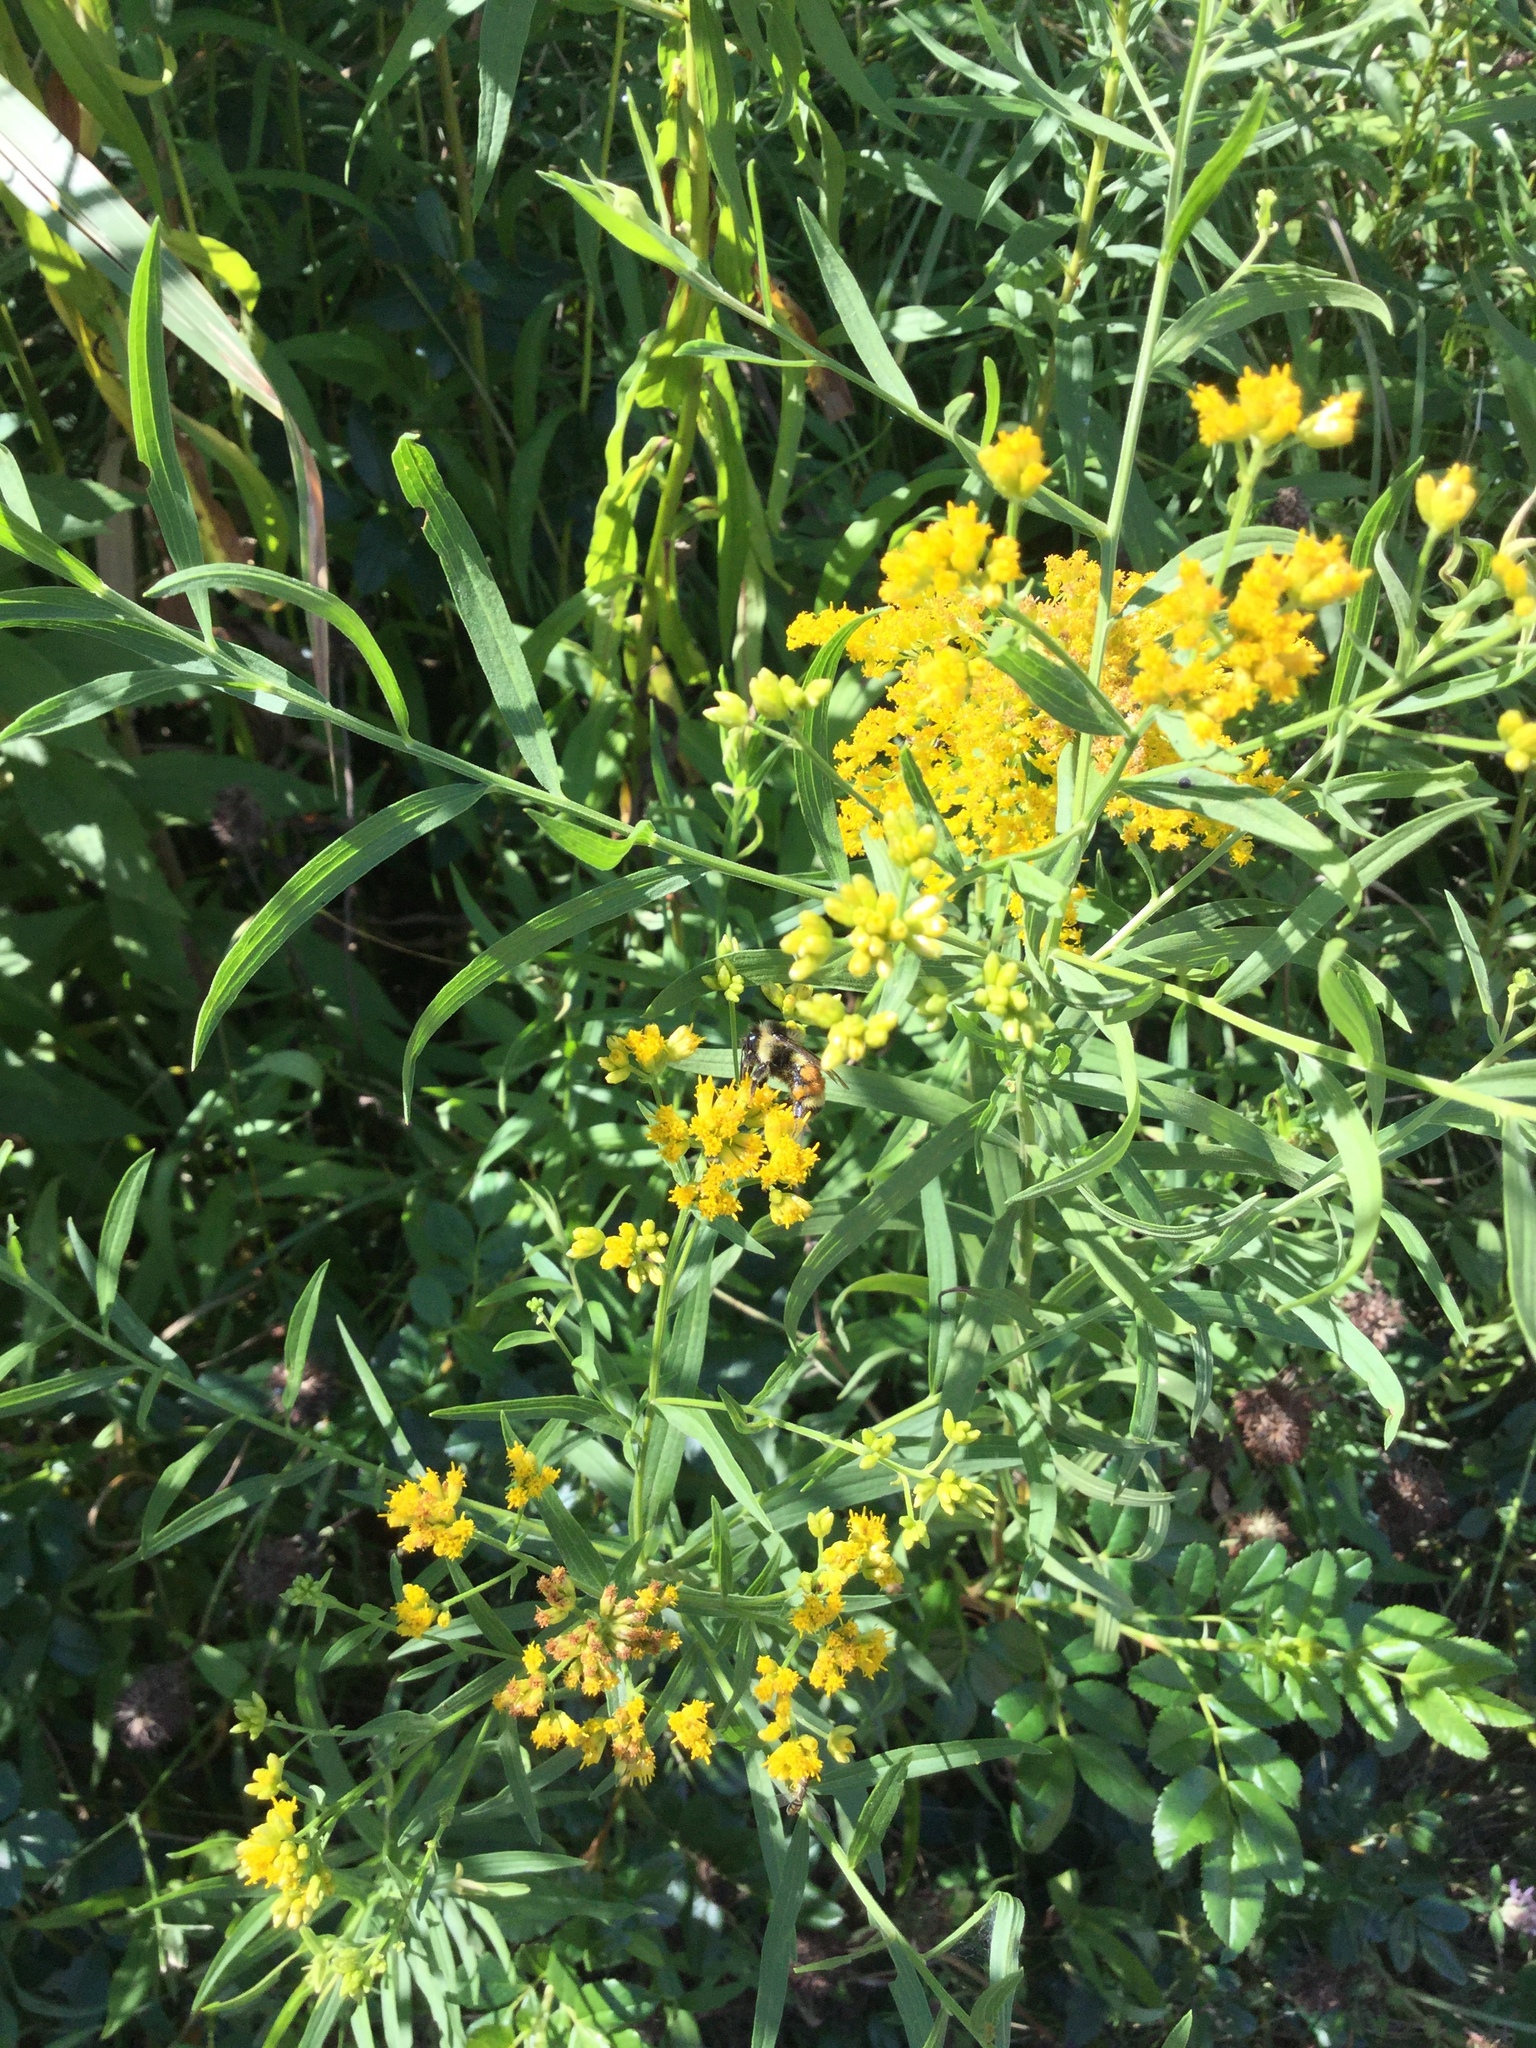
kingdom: Plantae
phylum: Tracheophyta
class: Magnoliopsida
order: Asterales
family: Asteraceae
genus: Euthamia
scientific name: Euthamia graminifolia
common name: Common goldentop
